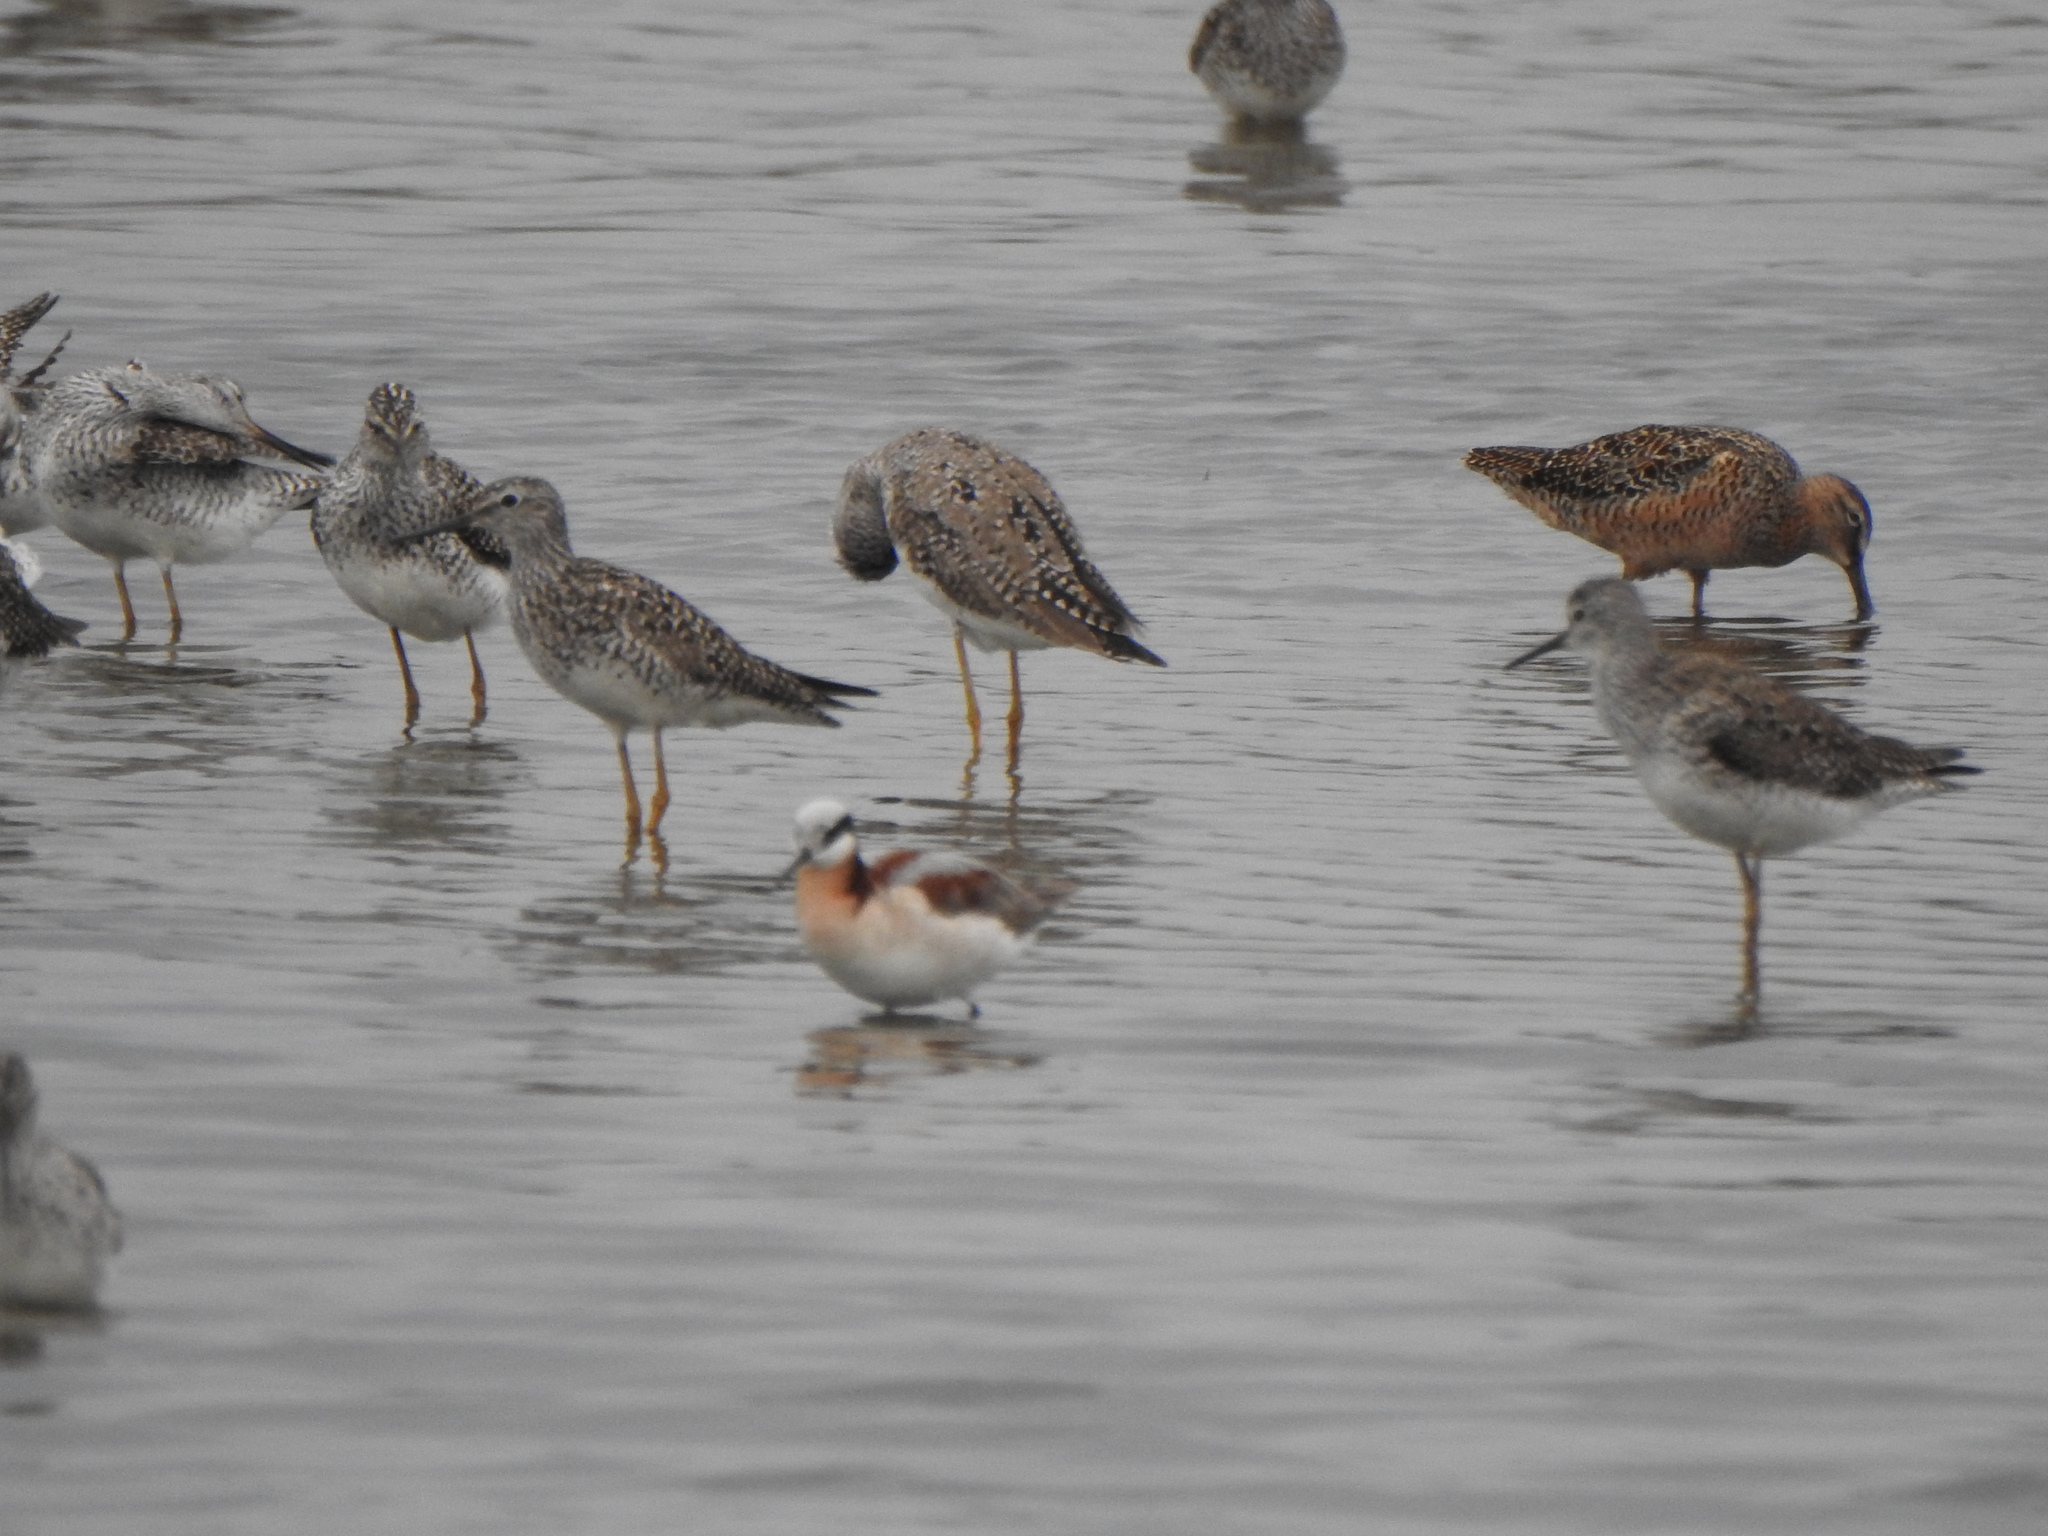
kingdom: Animalia
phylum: Chordata
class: Aves
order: Charadriiformes
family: Scolopacidae
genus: Phalaropus
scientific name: Phalaropus tricolor
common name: Wilson's phalarope
